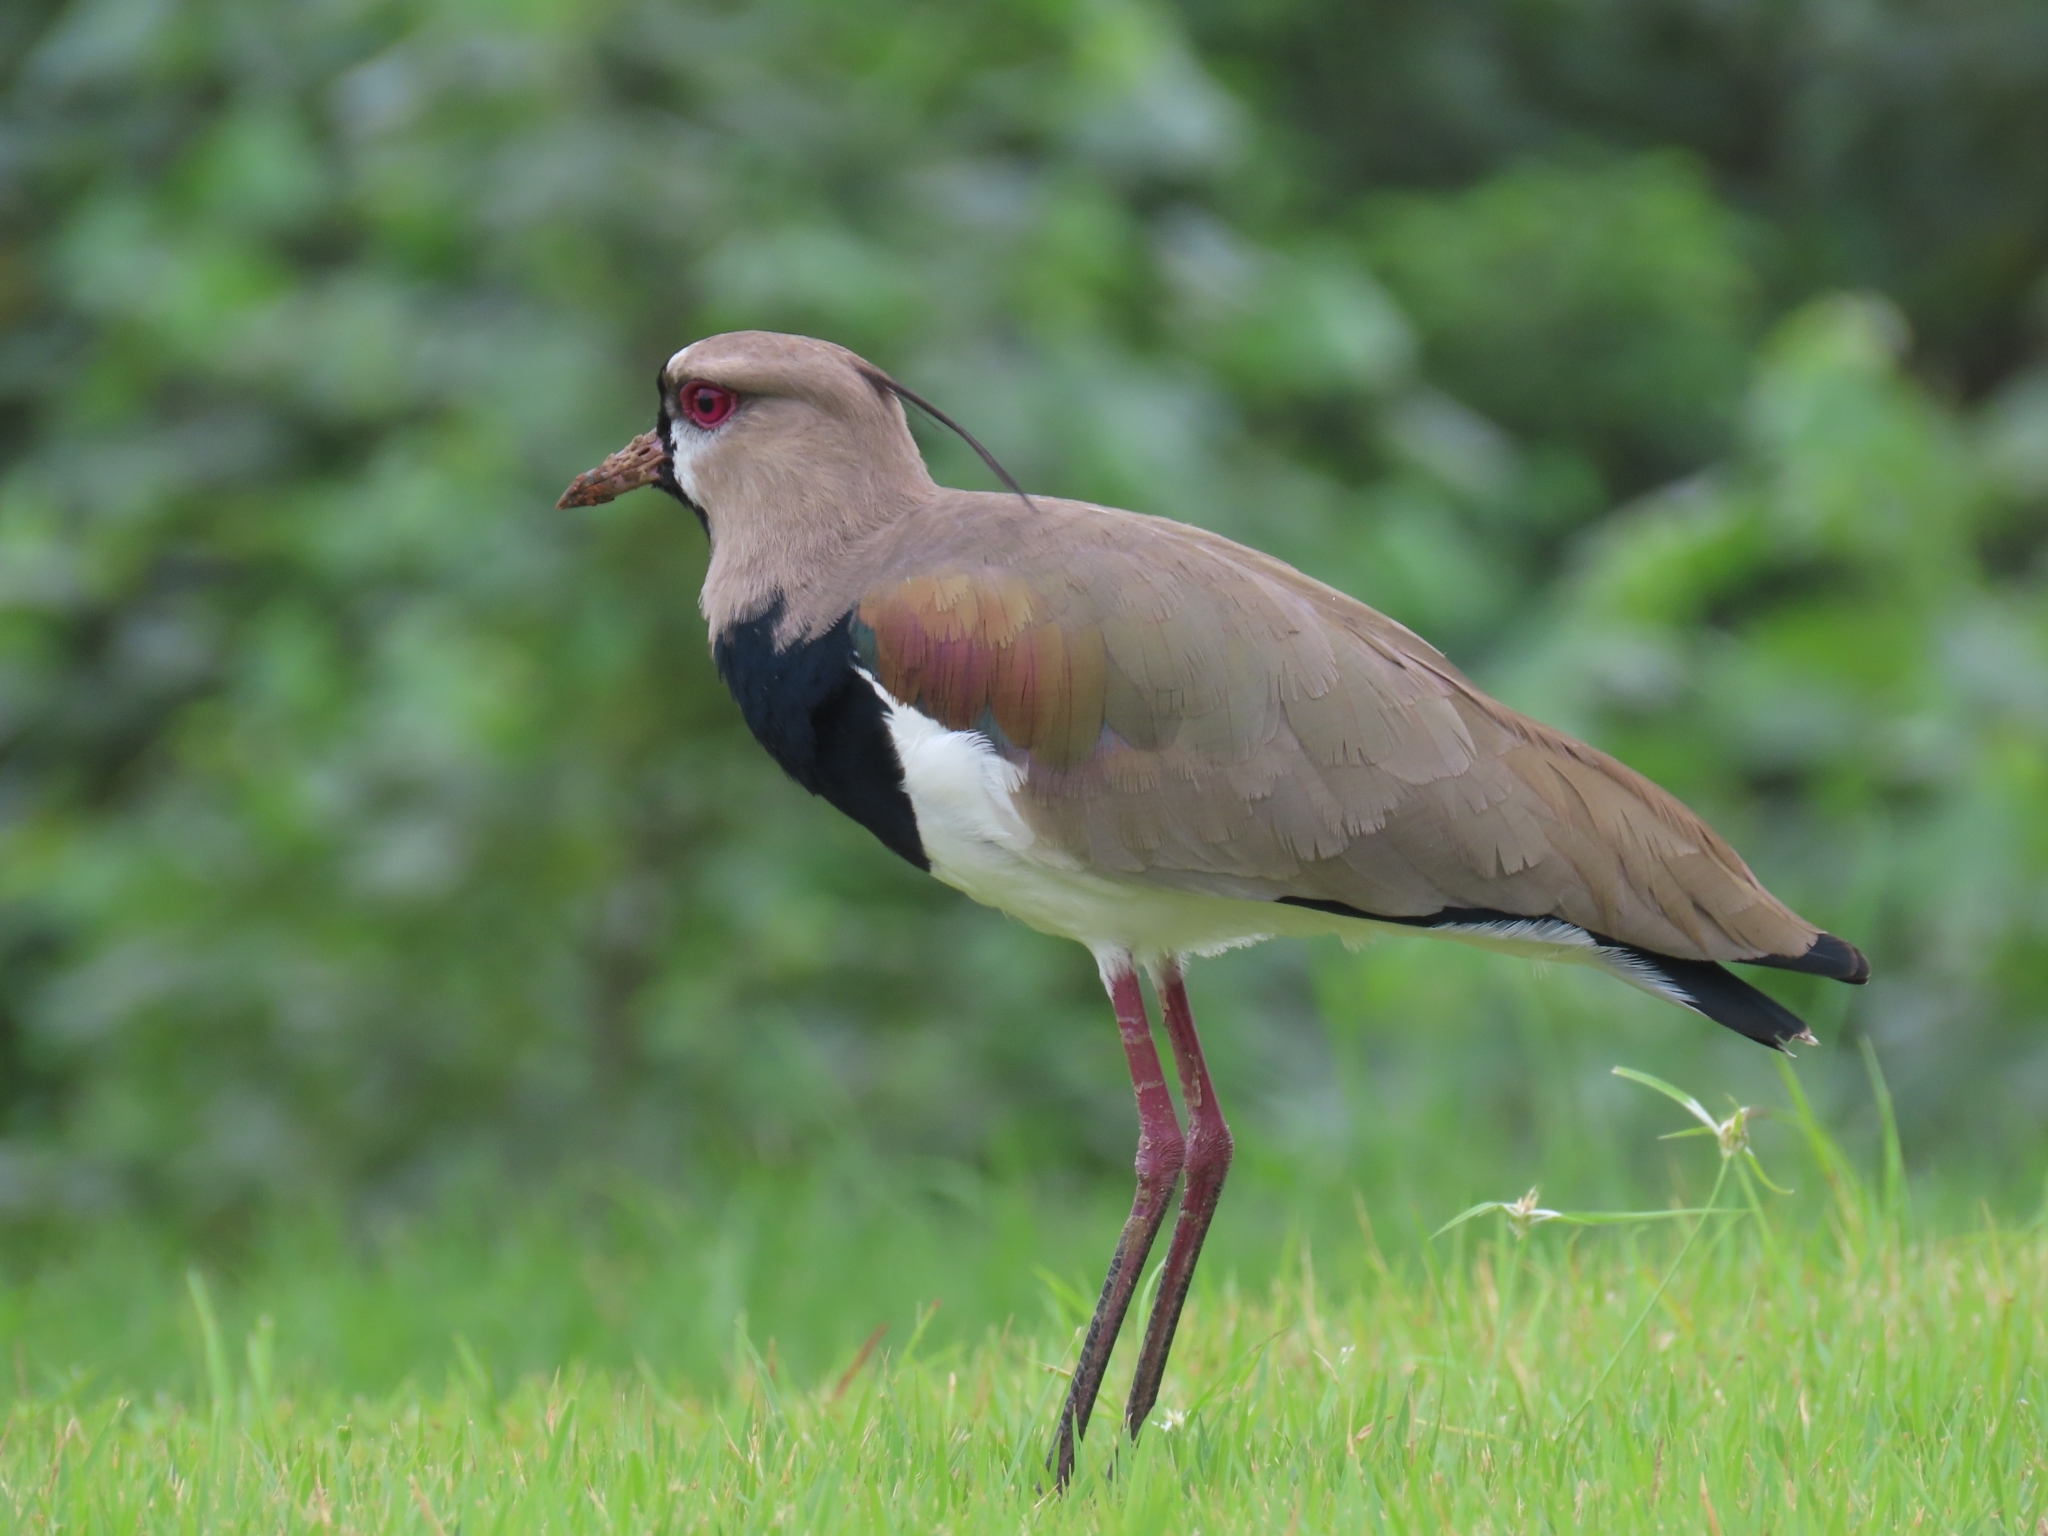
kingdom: Animalia
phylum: Chordata
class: Aves
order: Charadriiformes
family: Charadriidae
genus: Vanellus
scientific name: Vanellus chilensis
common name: Southern lapwing
